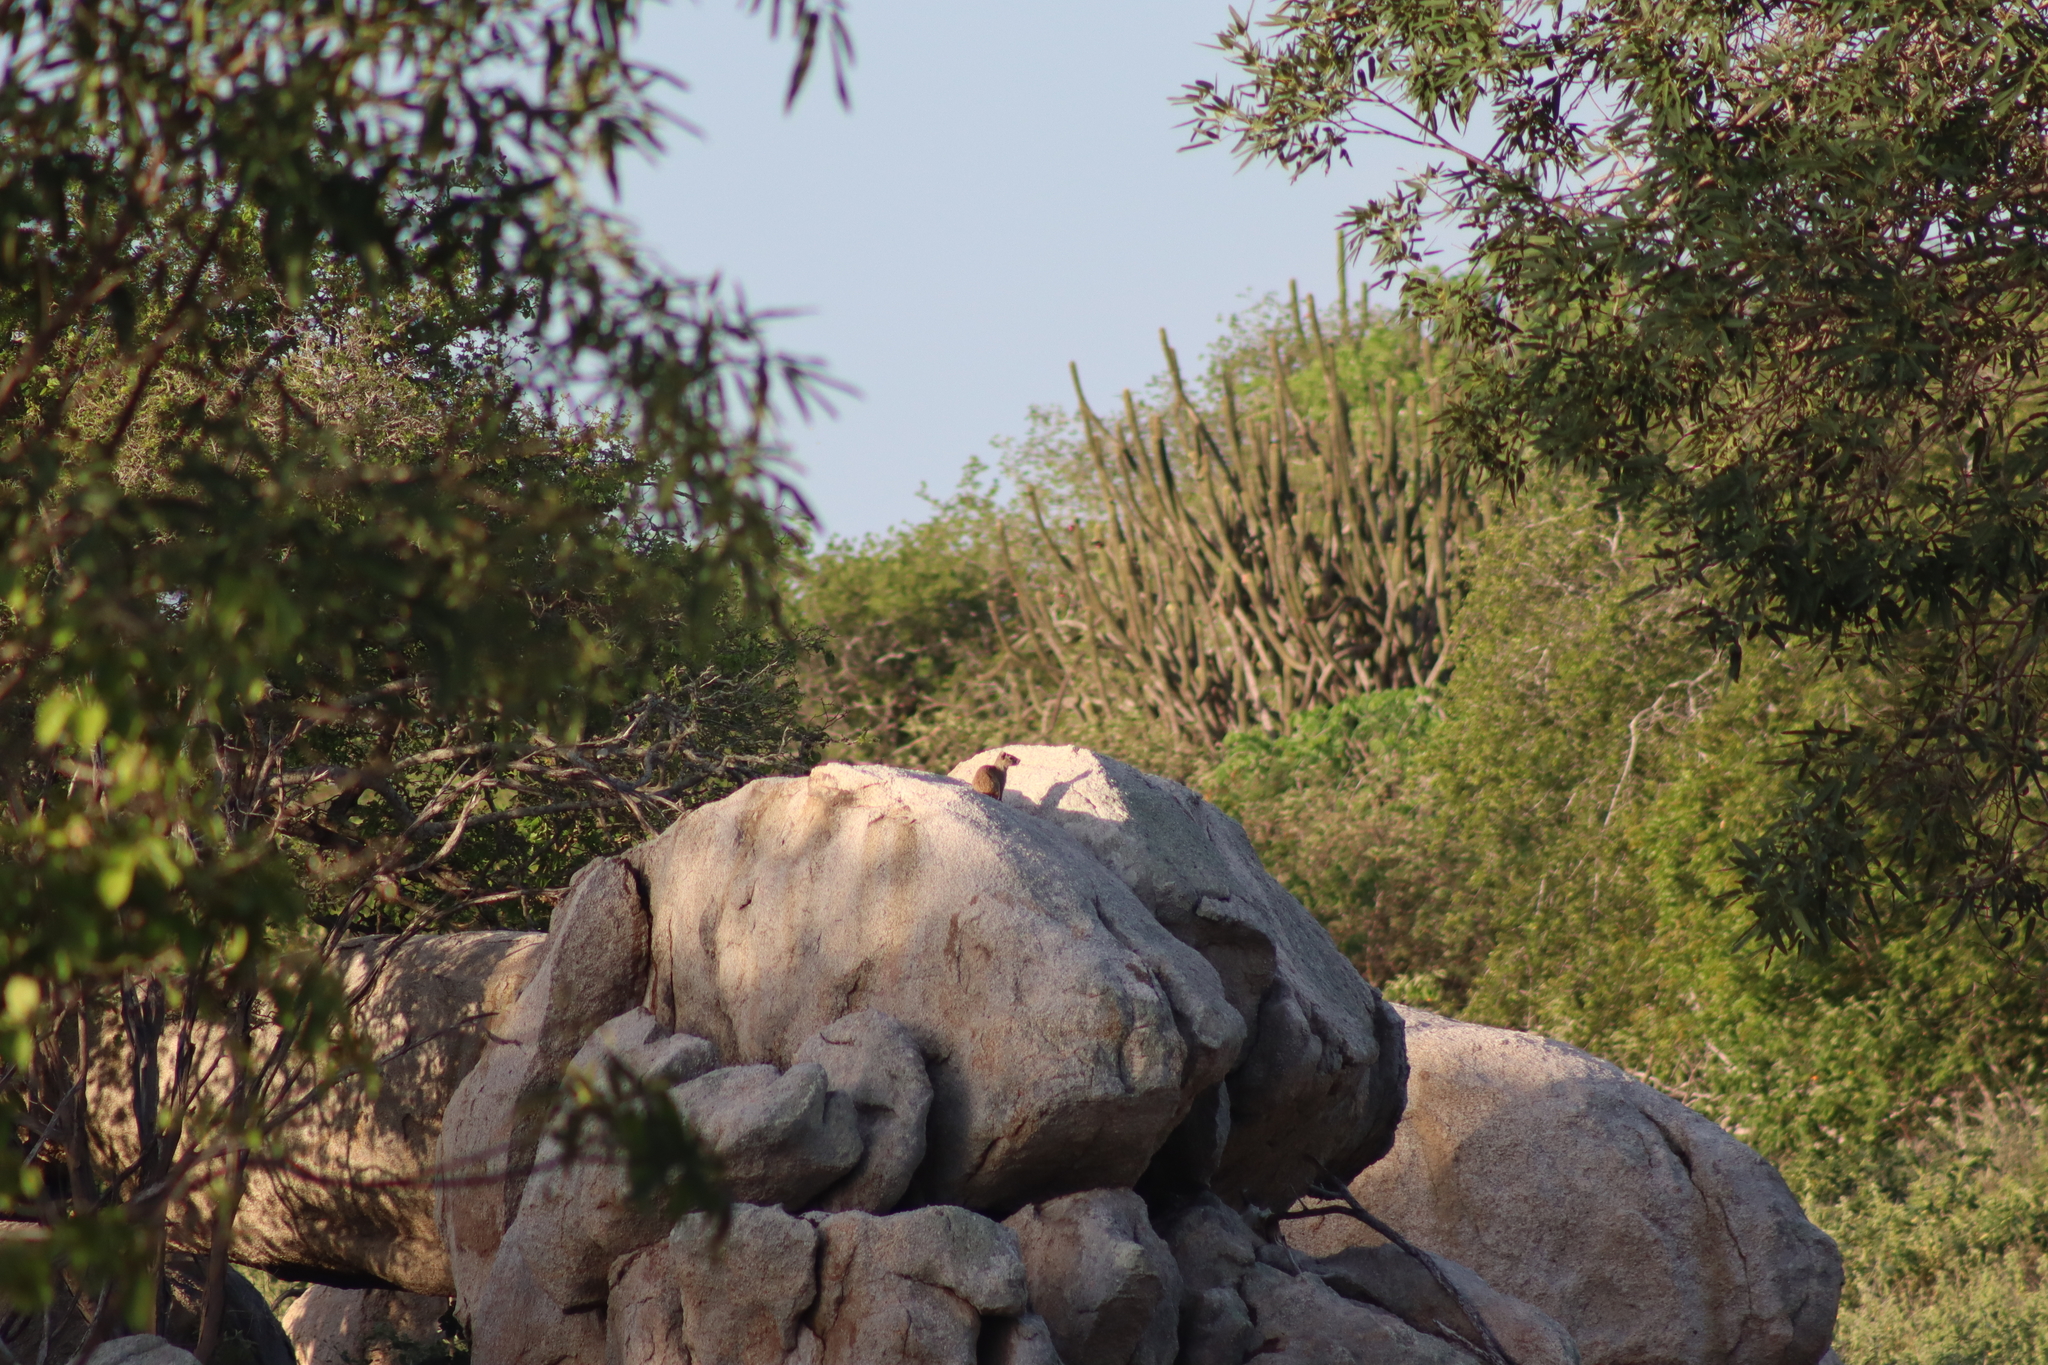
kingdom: Animalia
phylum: Chordata
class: Mammalia
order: Rodentia
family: Caviidae
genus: Kerodon
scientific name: Kerodon rupestris
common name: Rock cavy
